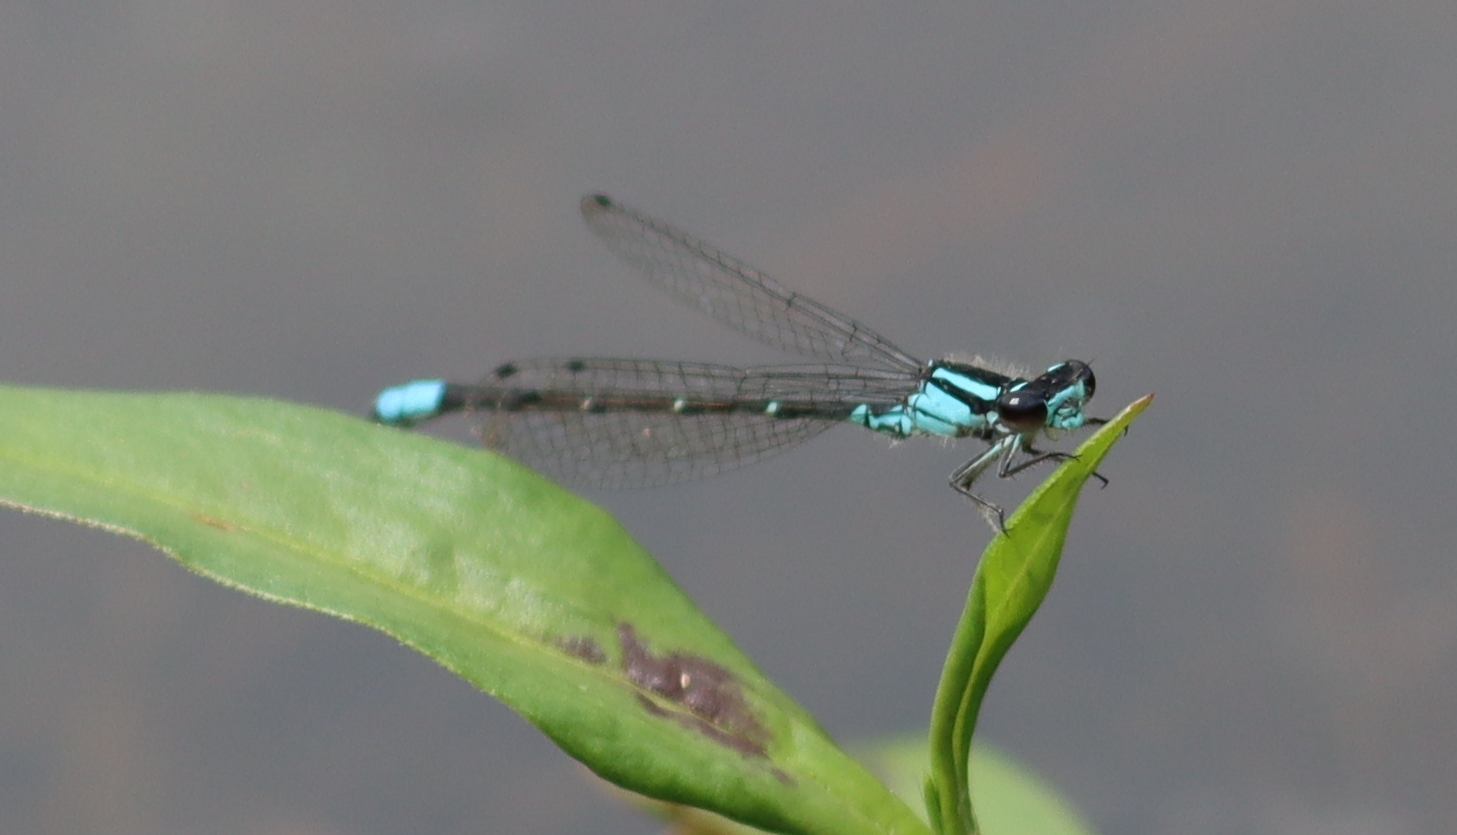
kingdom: Animalia
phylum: Arthropoda
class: Insecta
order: Odonata
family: Coenagrionidae
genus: Enallagma
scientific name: Enallagma geminatum
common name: Skimming bluet
